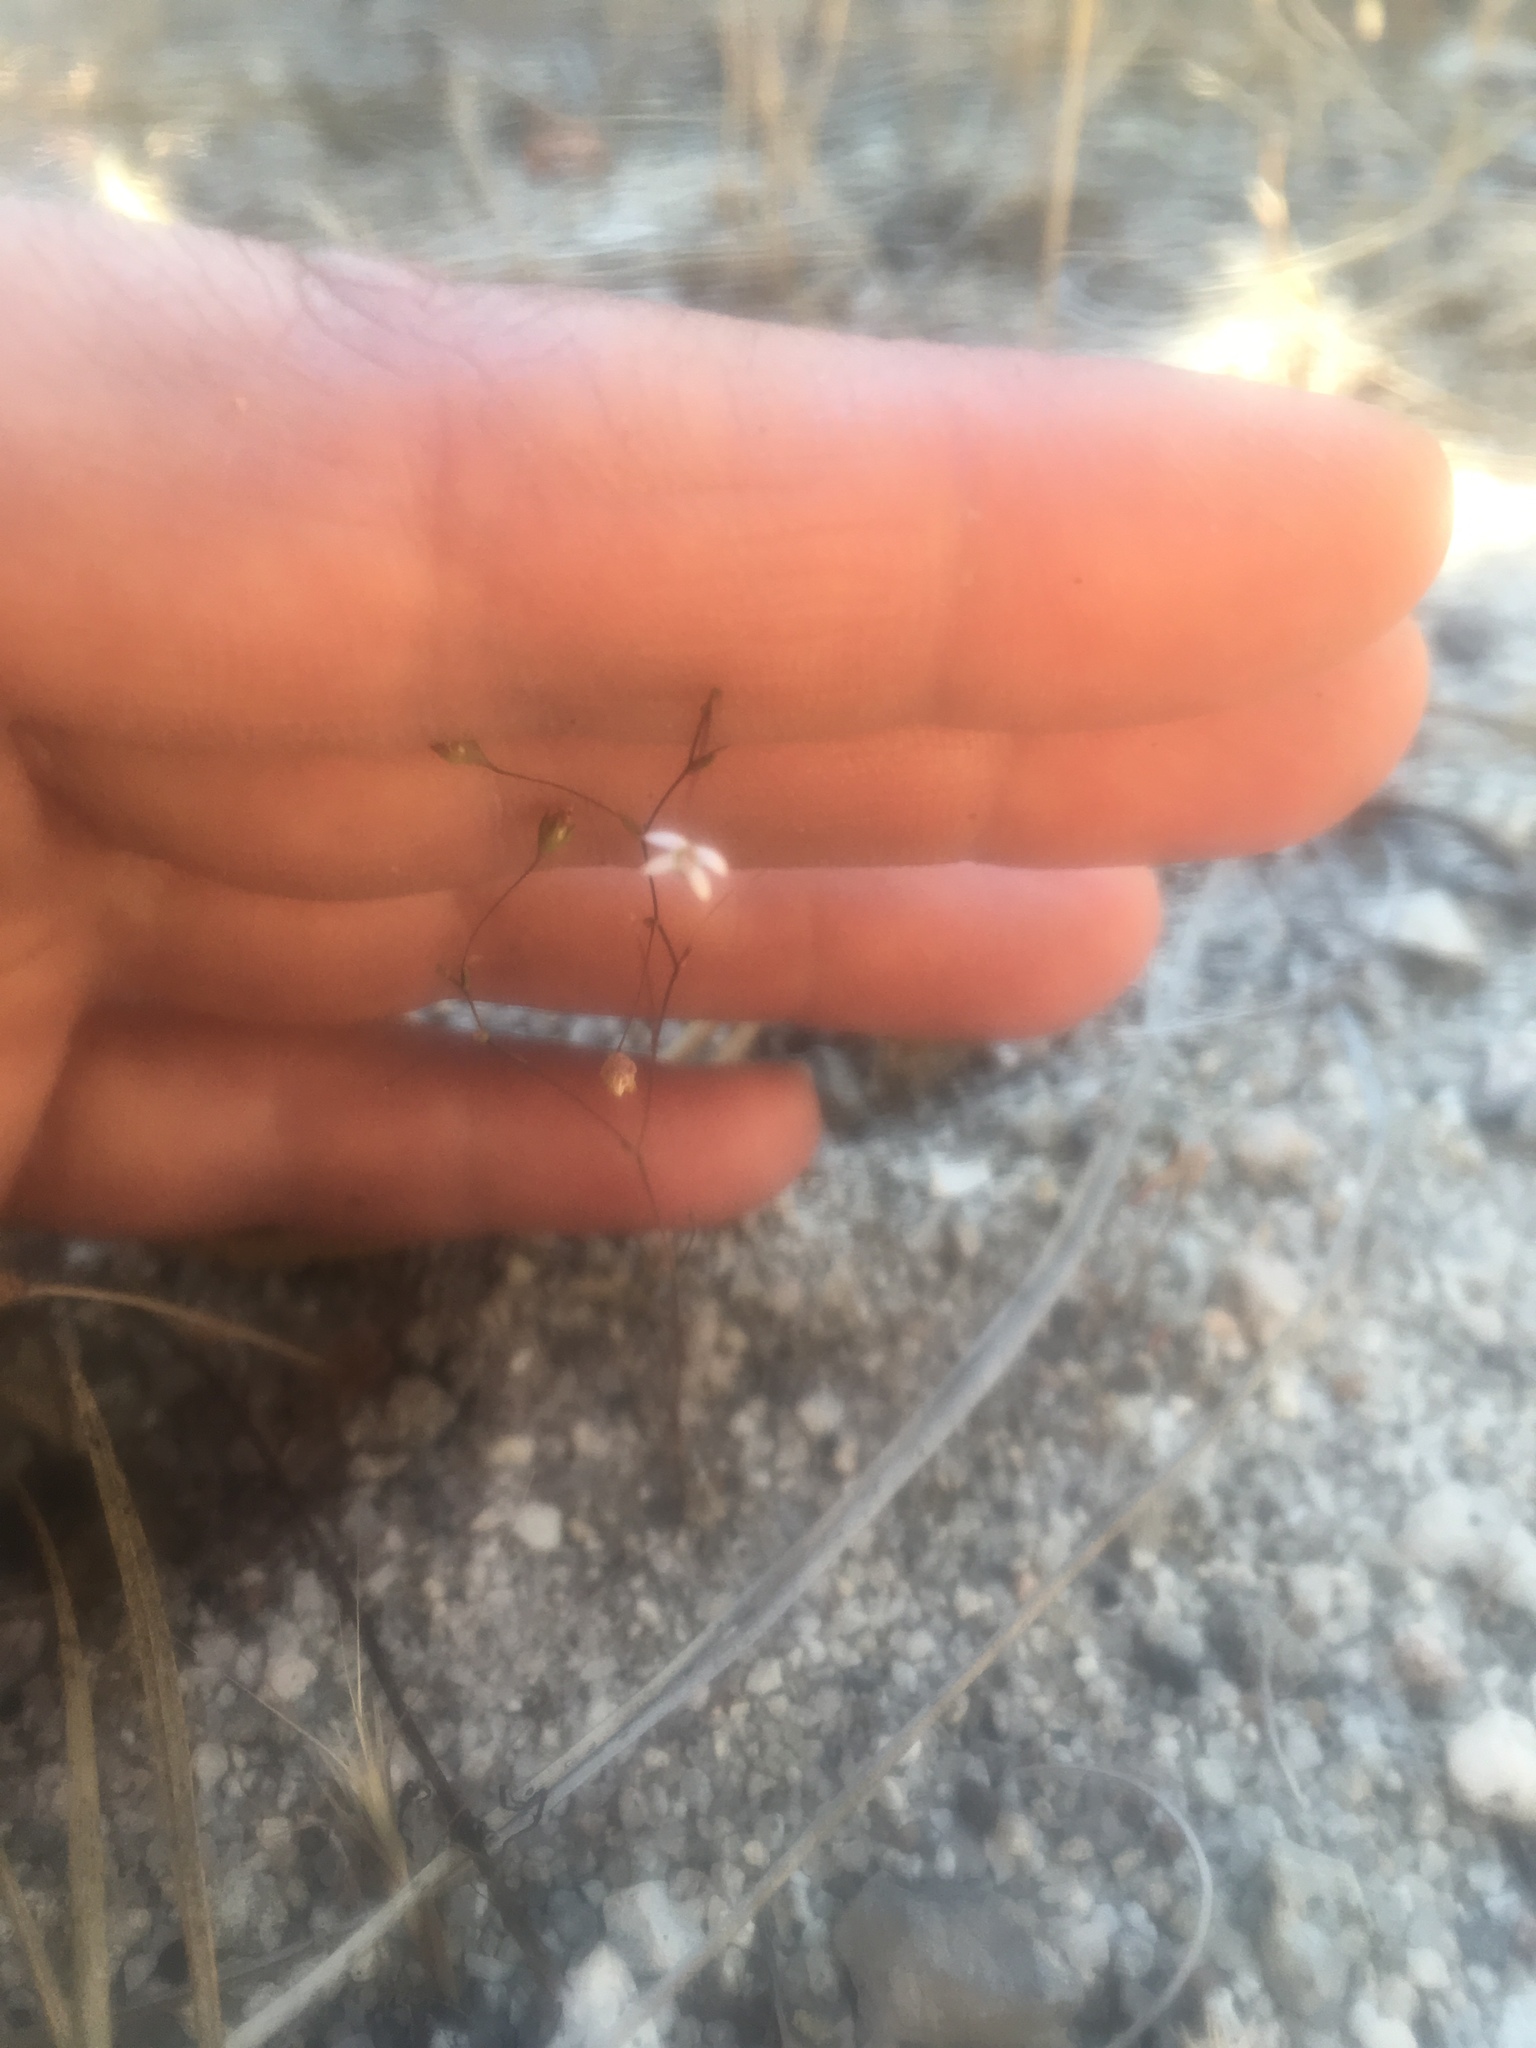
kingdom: Plantae
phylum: Tracheophyta
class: Magnoliopsida
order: Asterales
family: Campanulaceae
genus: Nemacladus
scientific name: Nemacladus secundiflorus
